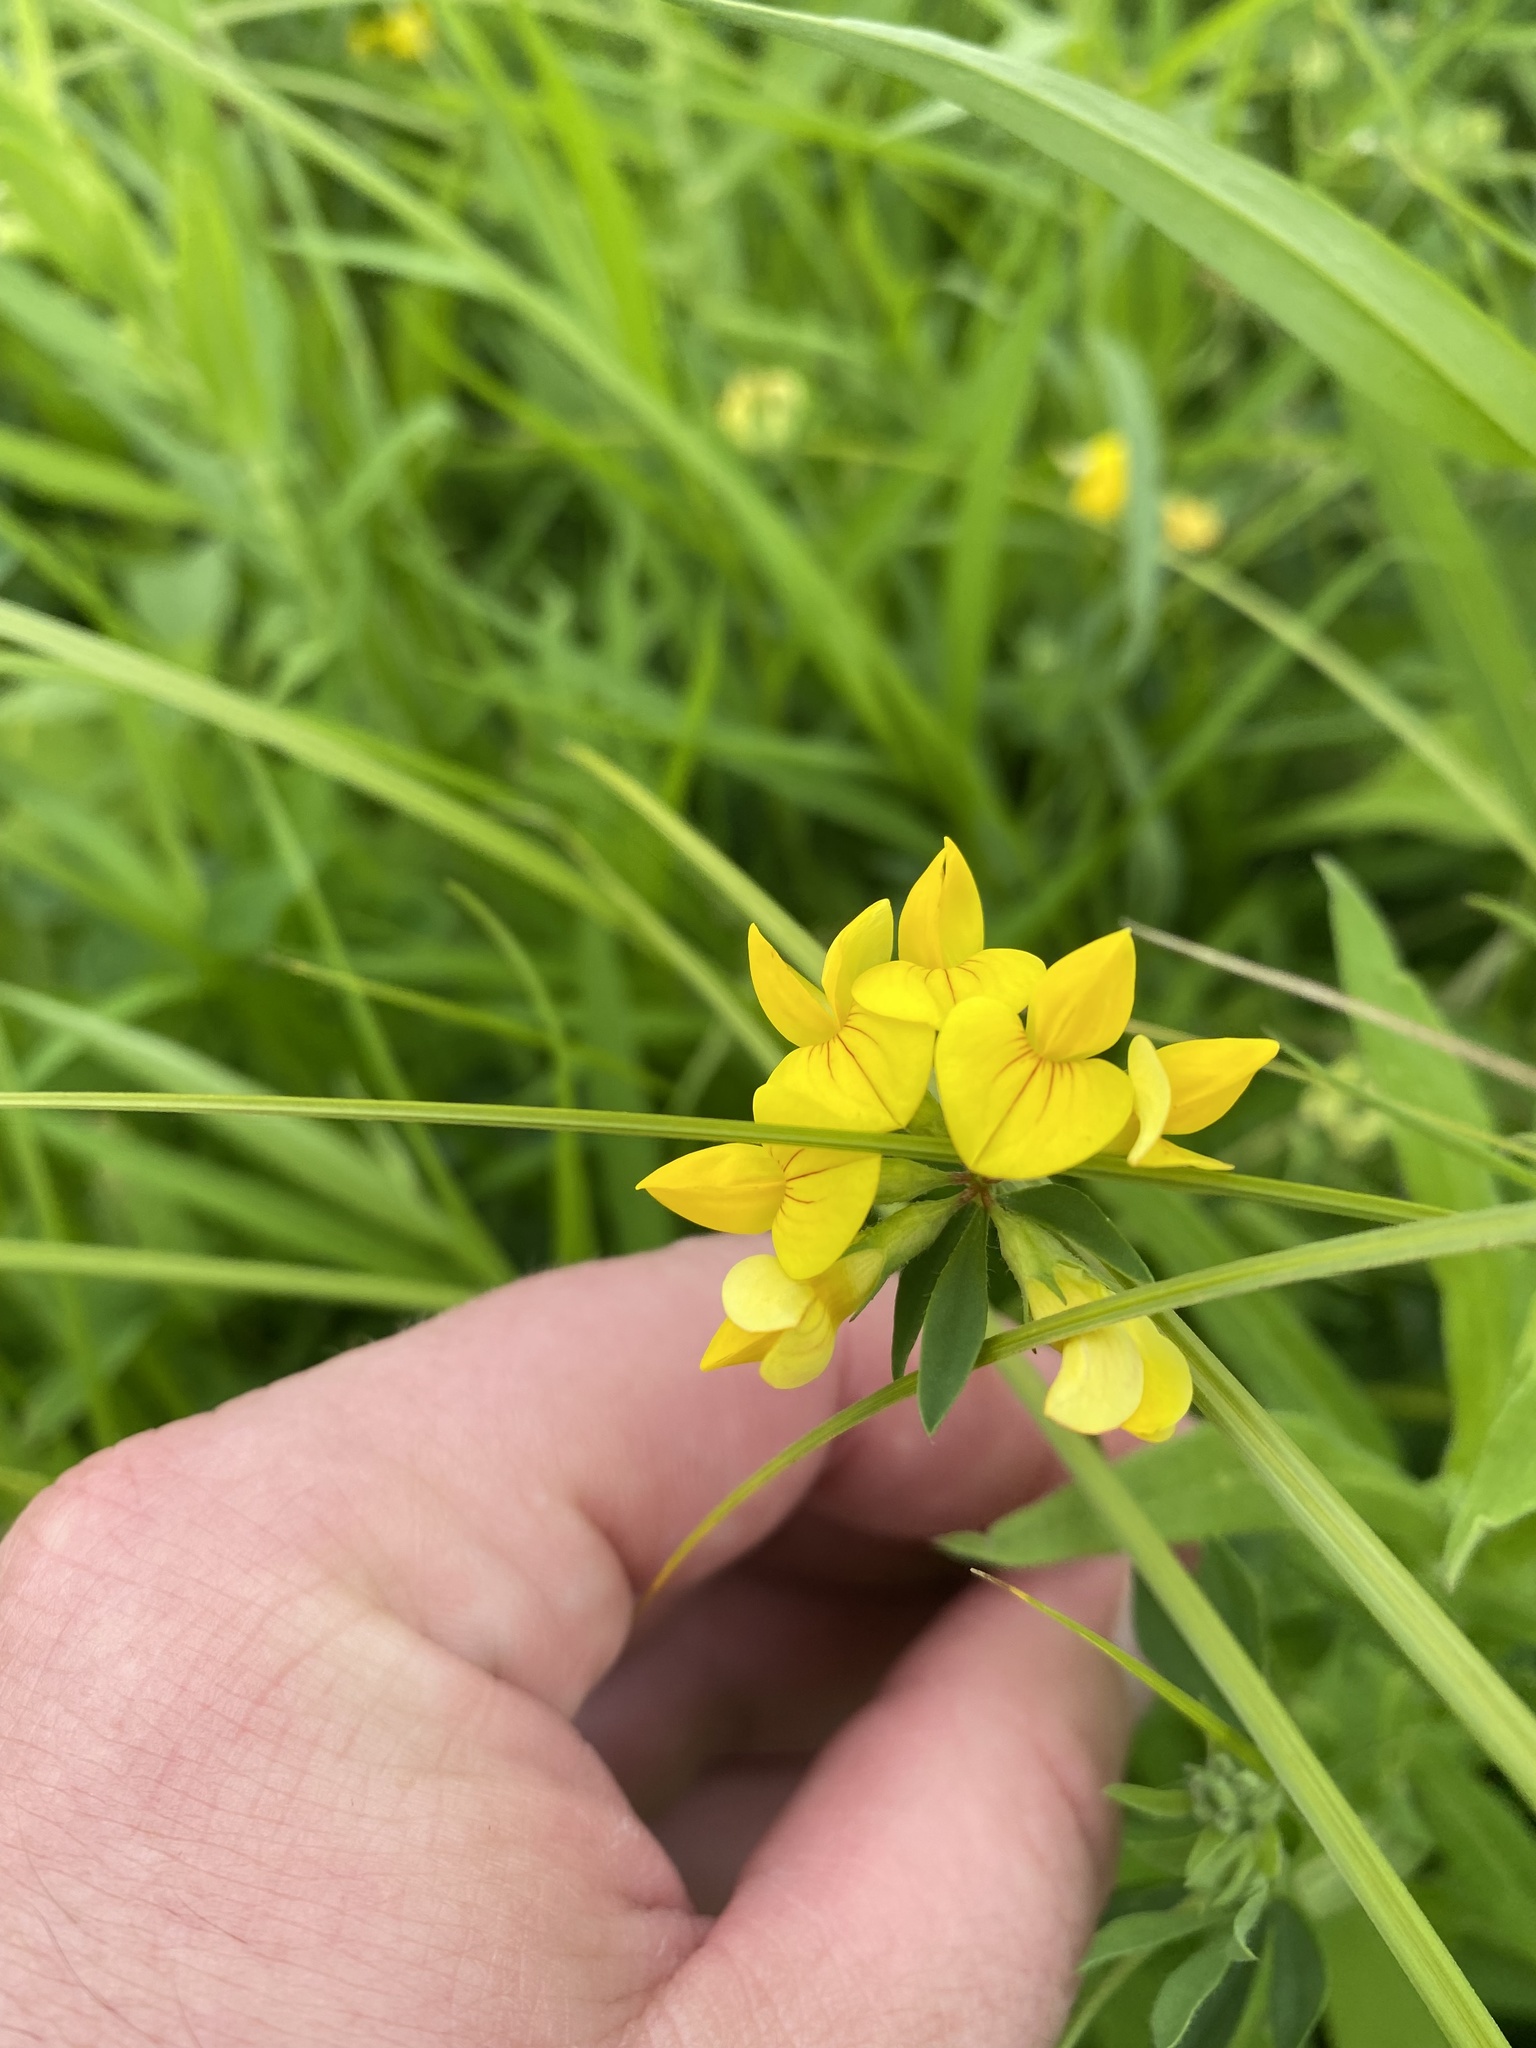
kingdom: Plantae
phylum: Tracheophyta
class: Magnoliopsida
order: Fabales
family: Fabaceae
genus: Lotus
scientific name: Lotus corniculatus
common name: Common bird's-foot-trefoil
